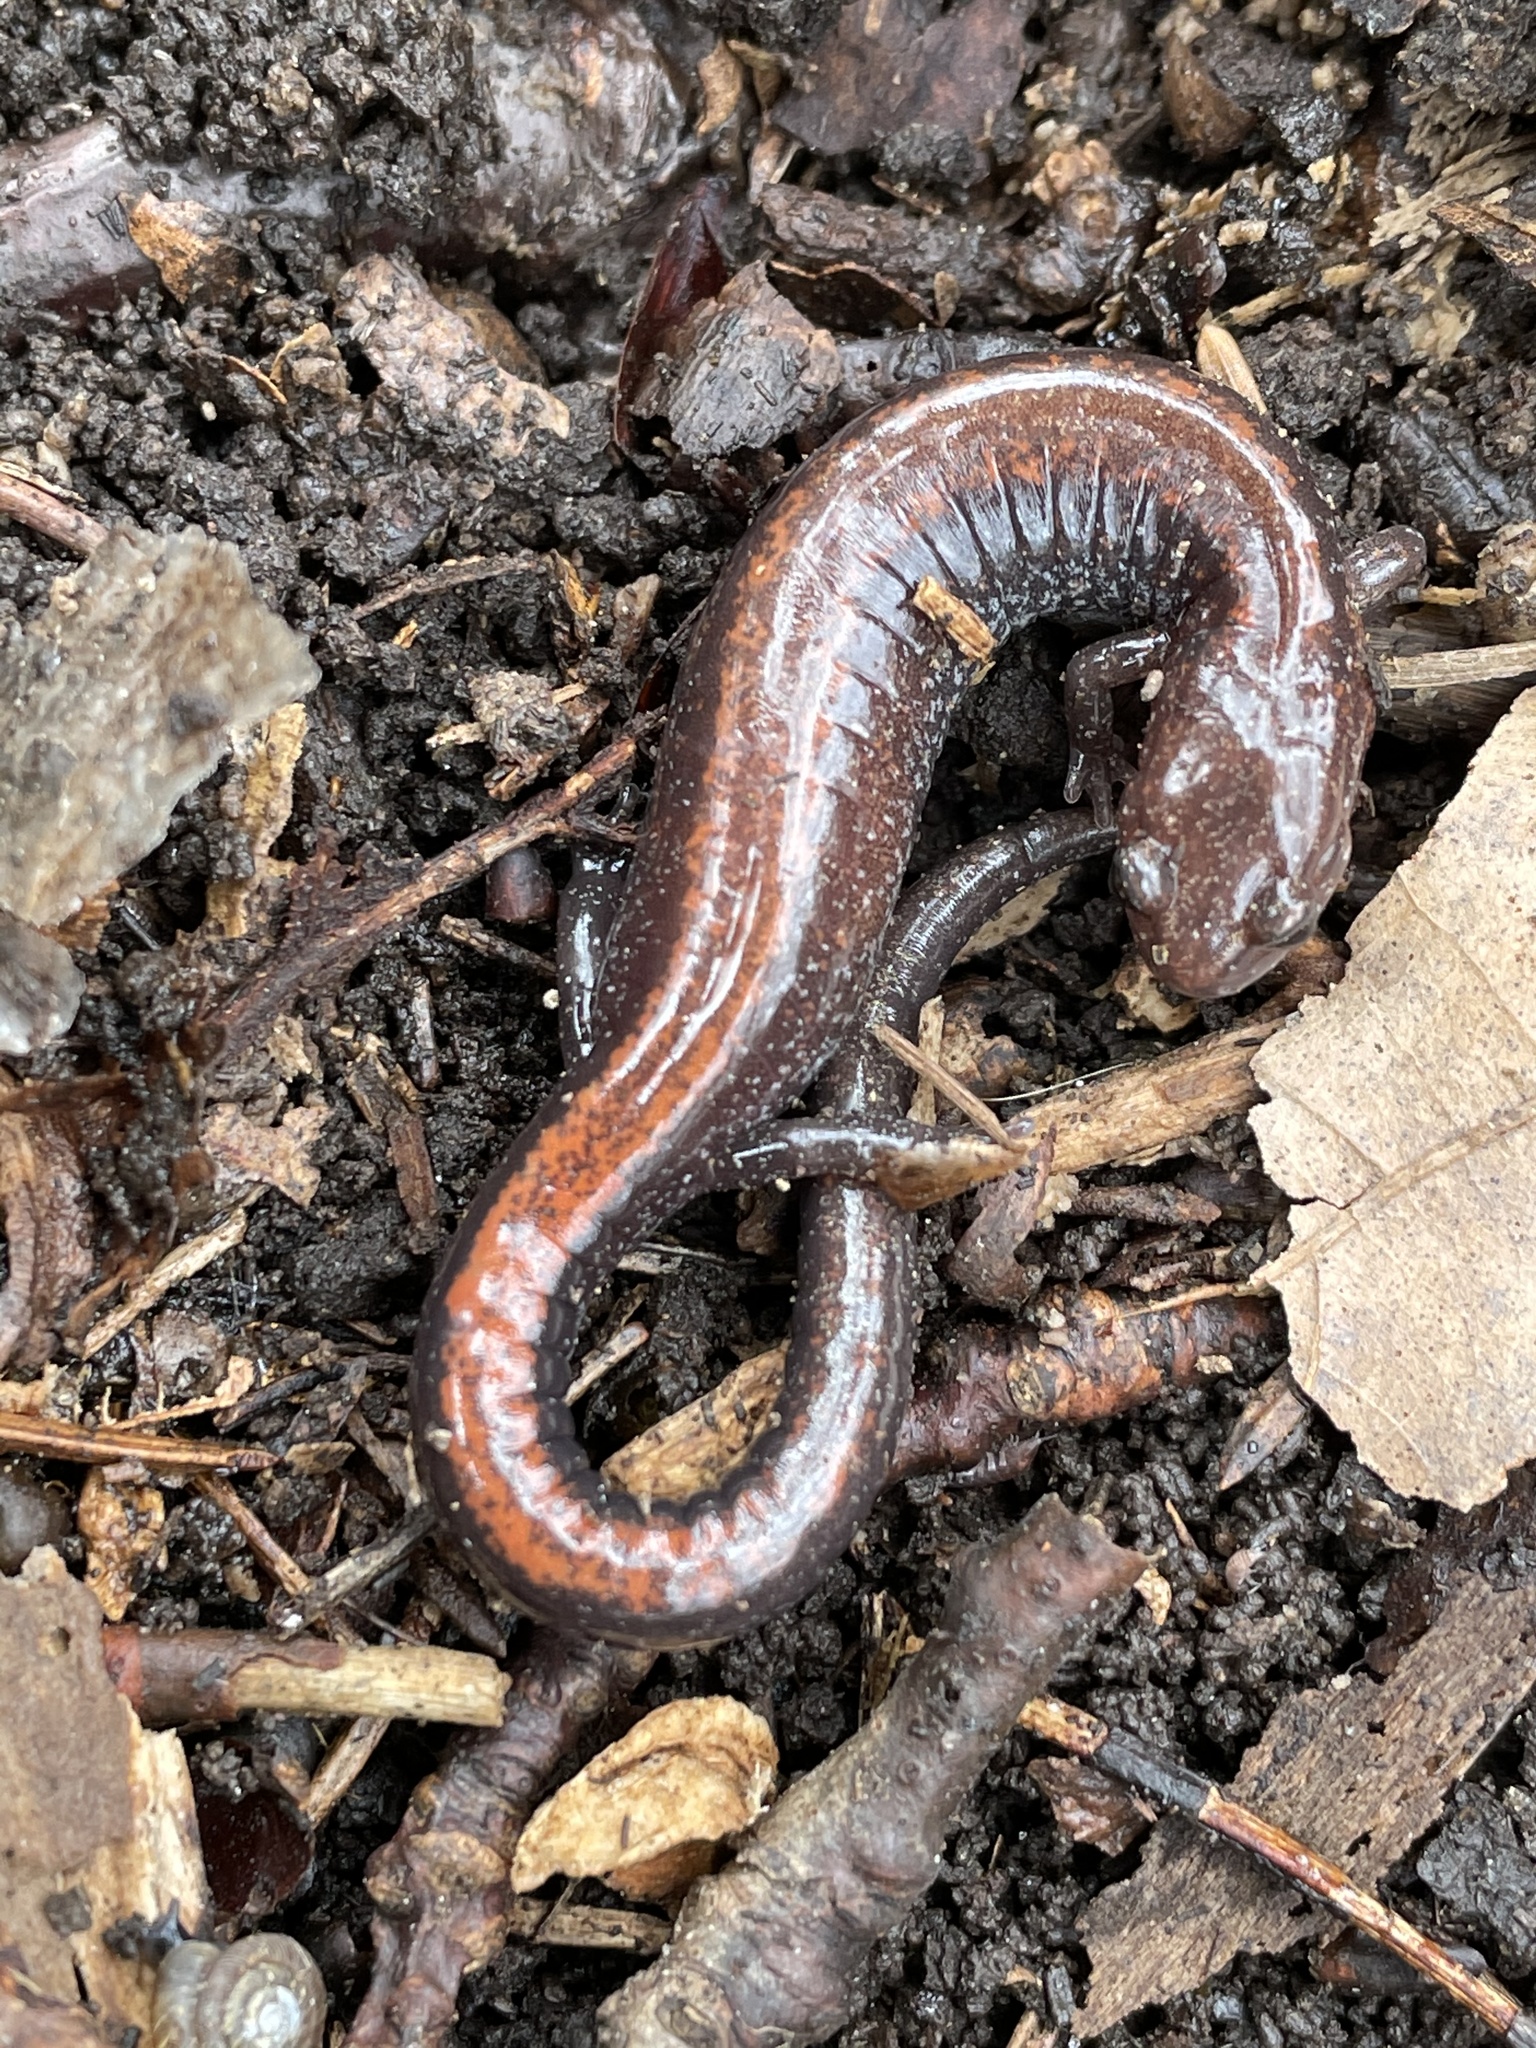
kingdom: Animalia
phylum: Chordata
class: Amphibia
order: Caudata
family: Plethodontidae
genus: Plethodon
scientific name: Plethodon cinereus
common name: Redback salamander
